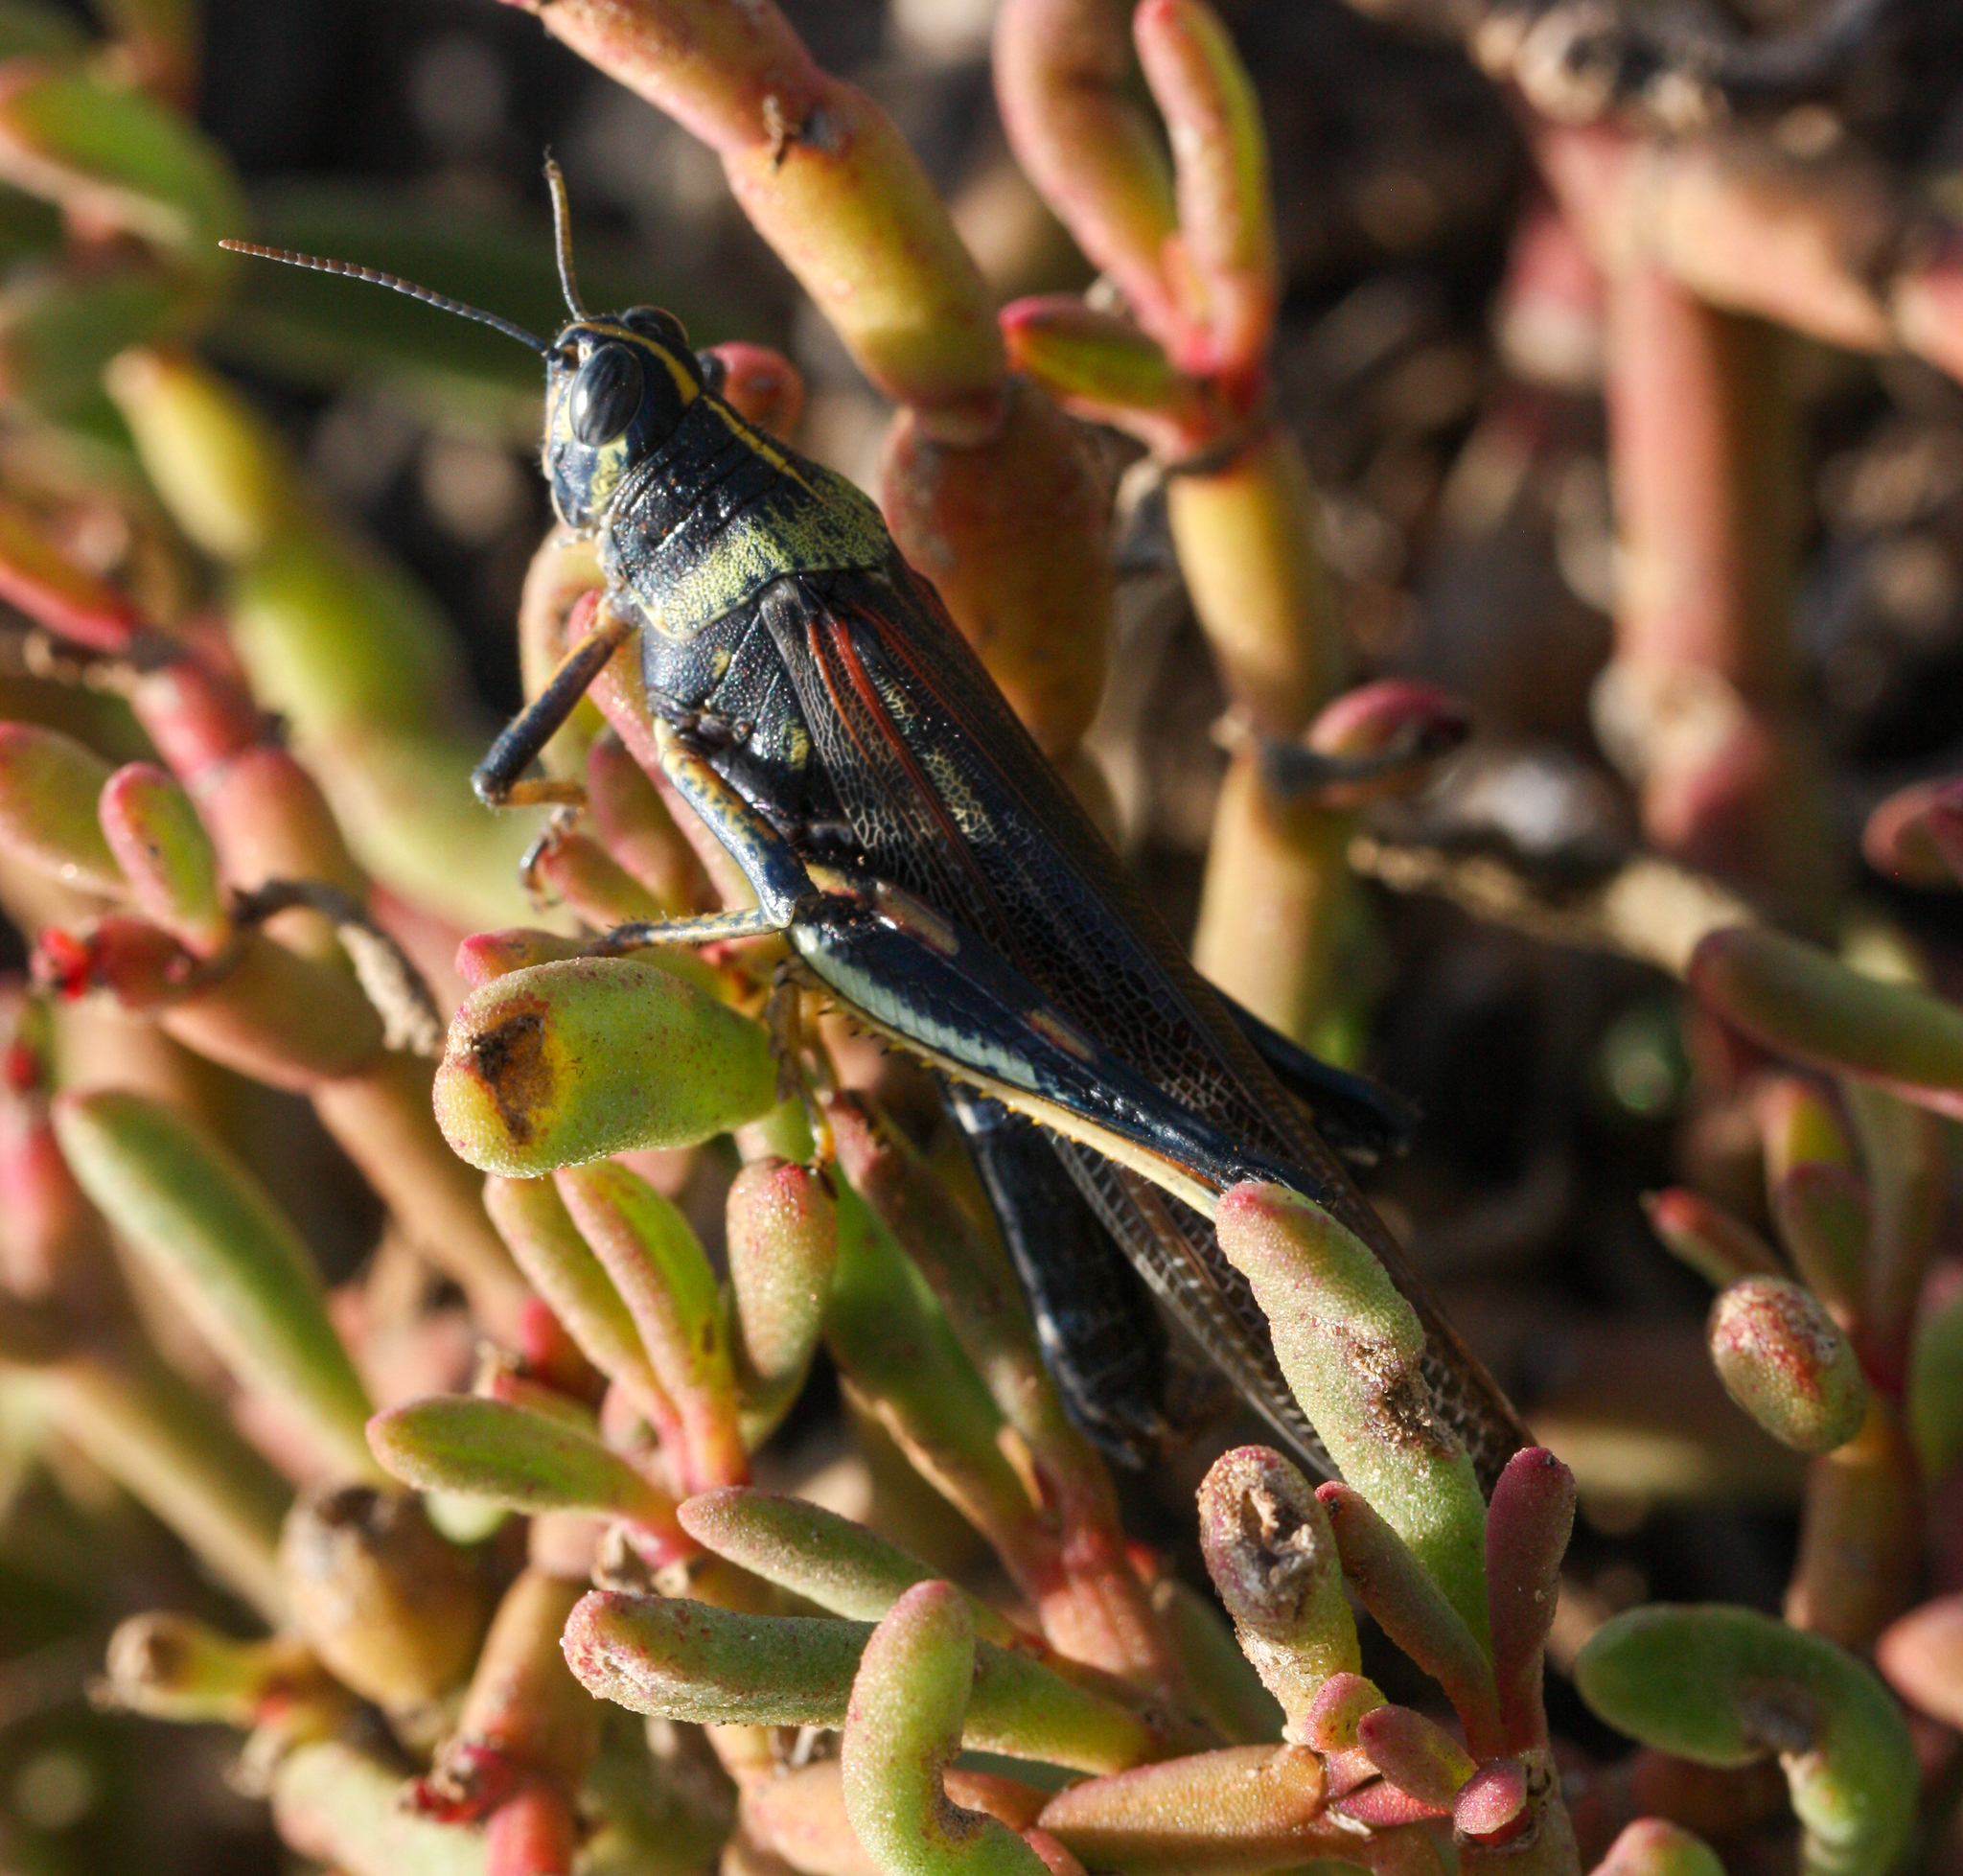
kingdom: Animalia
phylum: Arthropoda
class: Insecta
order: Orthoptera
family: Acrididae
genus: Schistocerca
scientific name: Schistocerca melanocera
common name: Large painted locust
